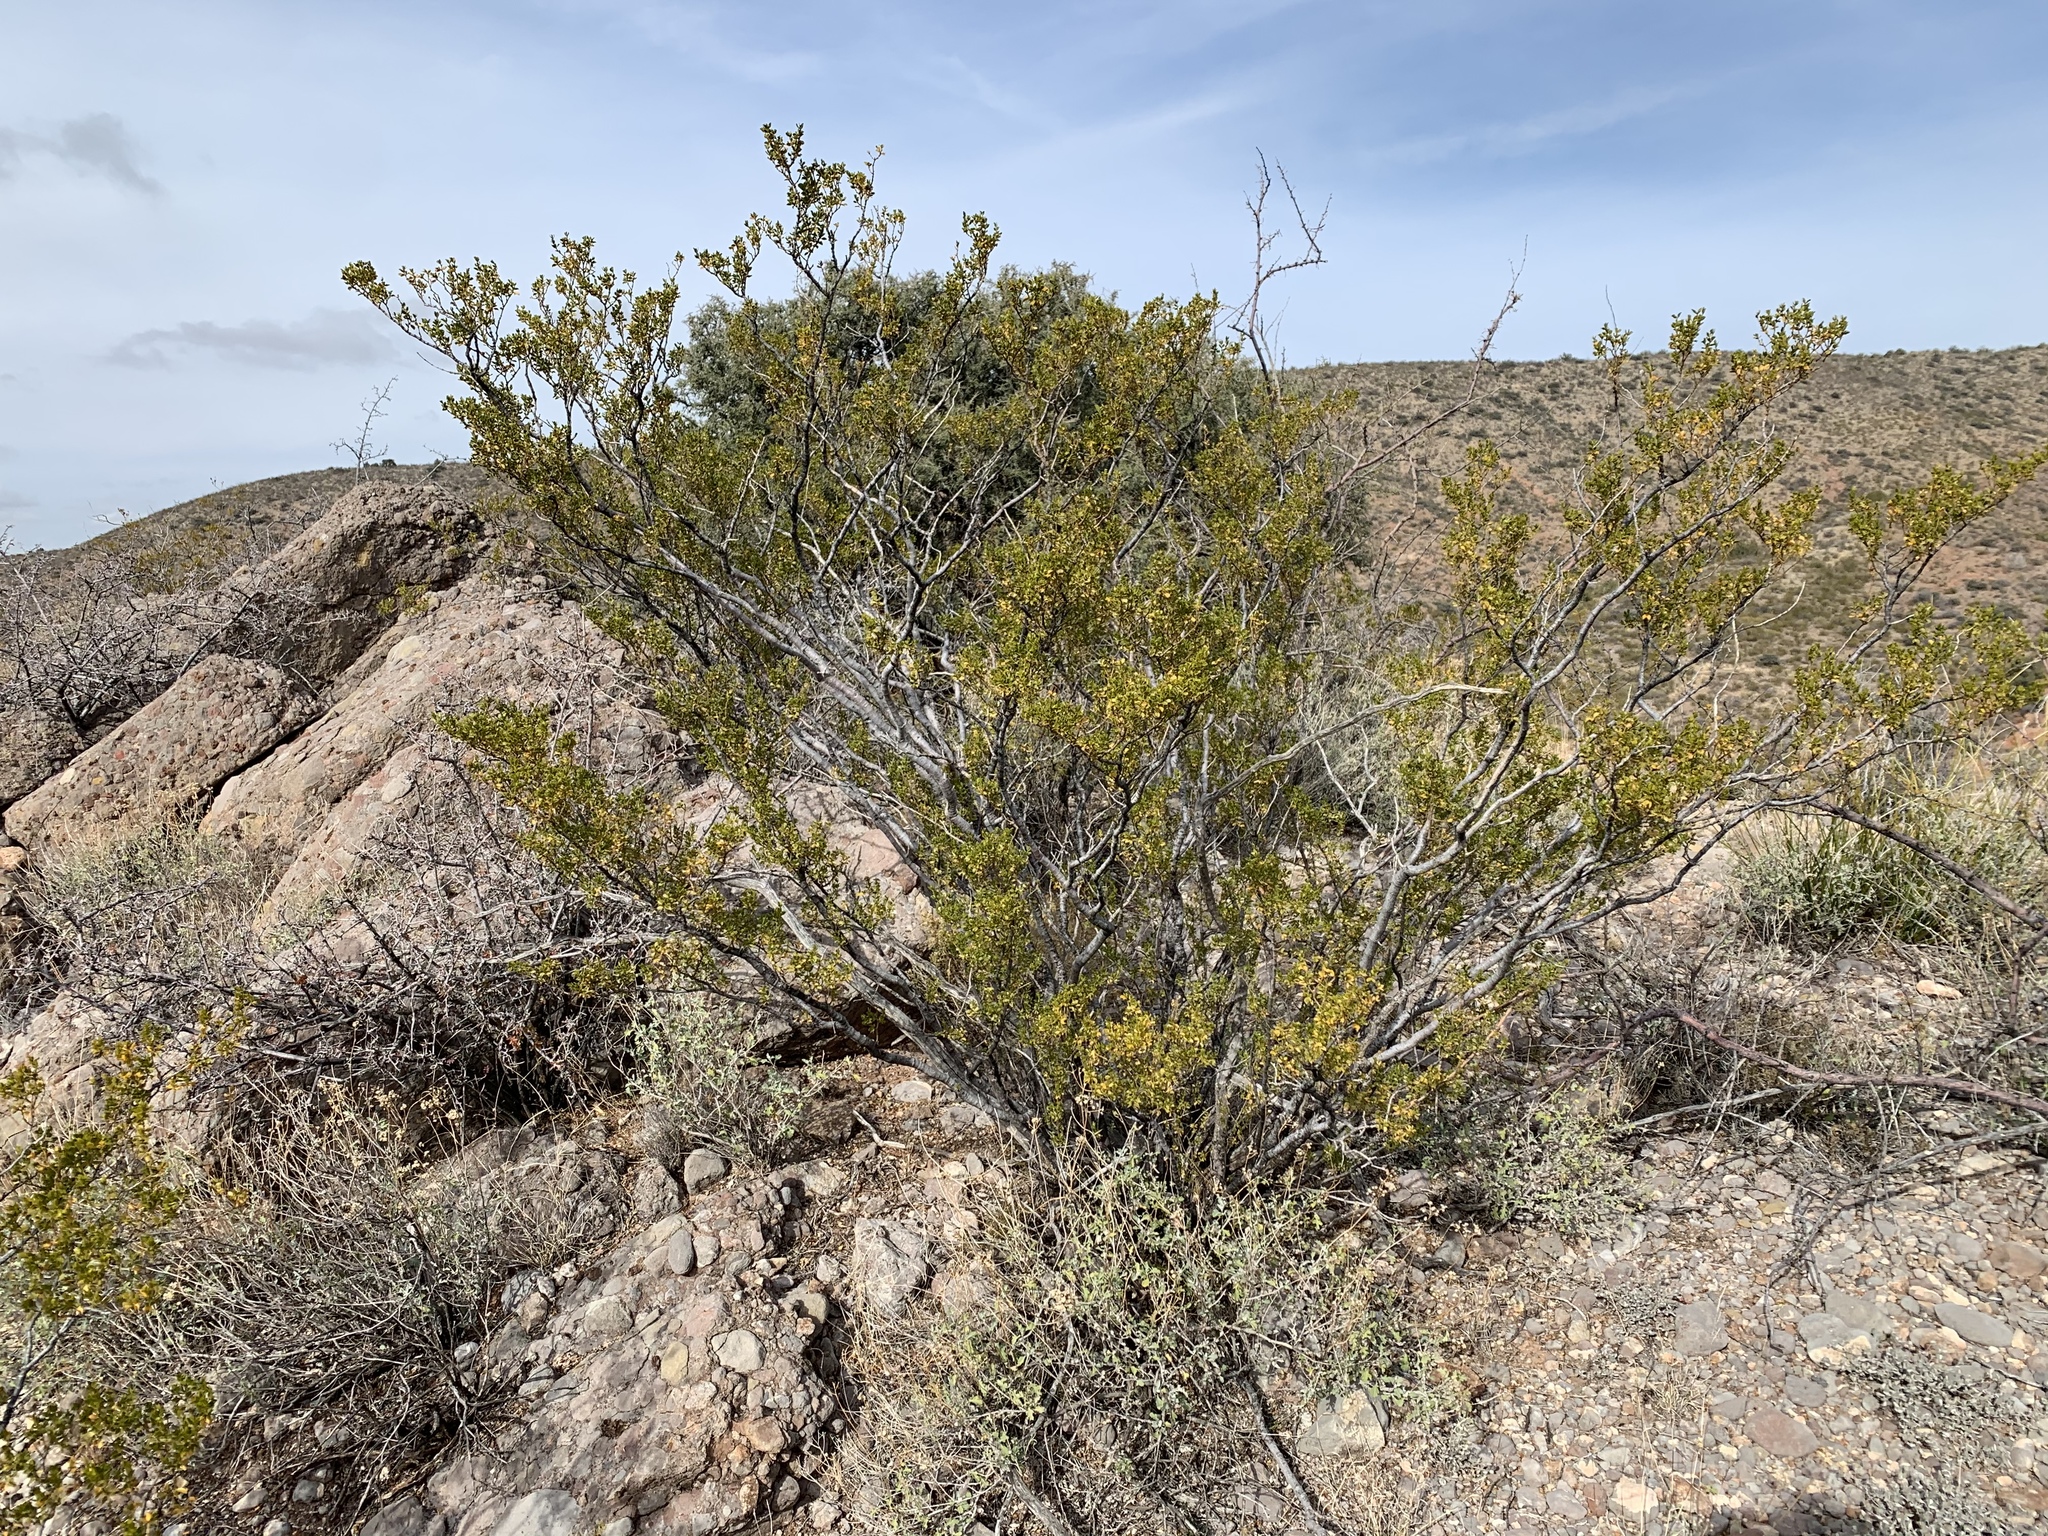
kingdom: Plantae
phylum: Tracheophyta
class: Magnoliopsida
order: Zygophyllales
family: Zygophyllaceae
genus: Larrea
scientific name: Larrea tridentata
